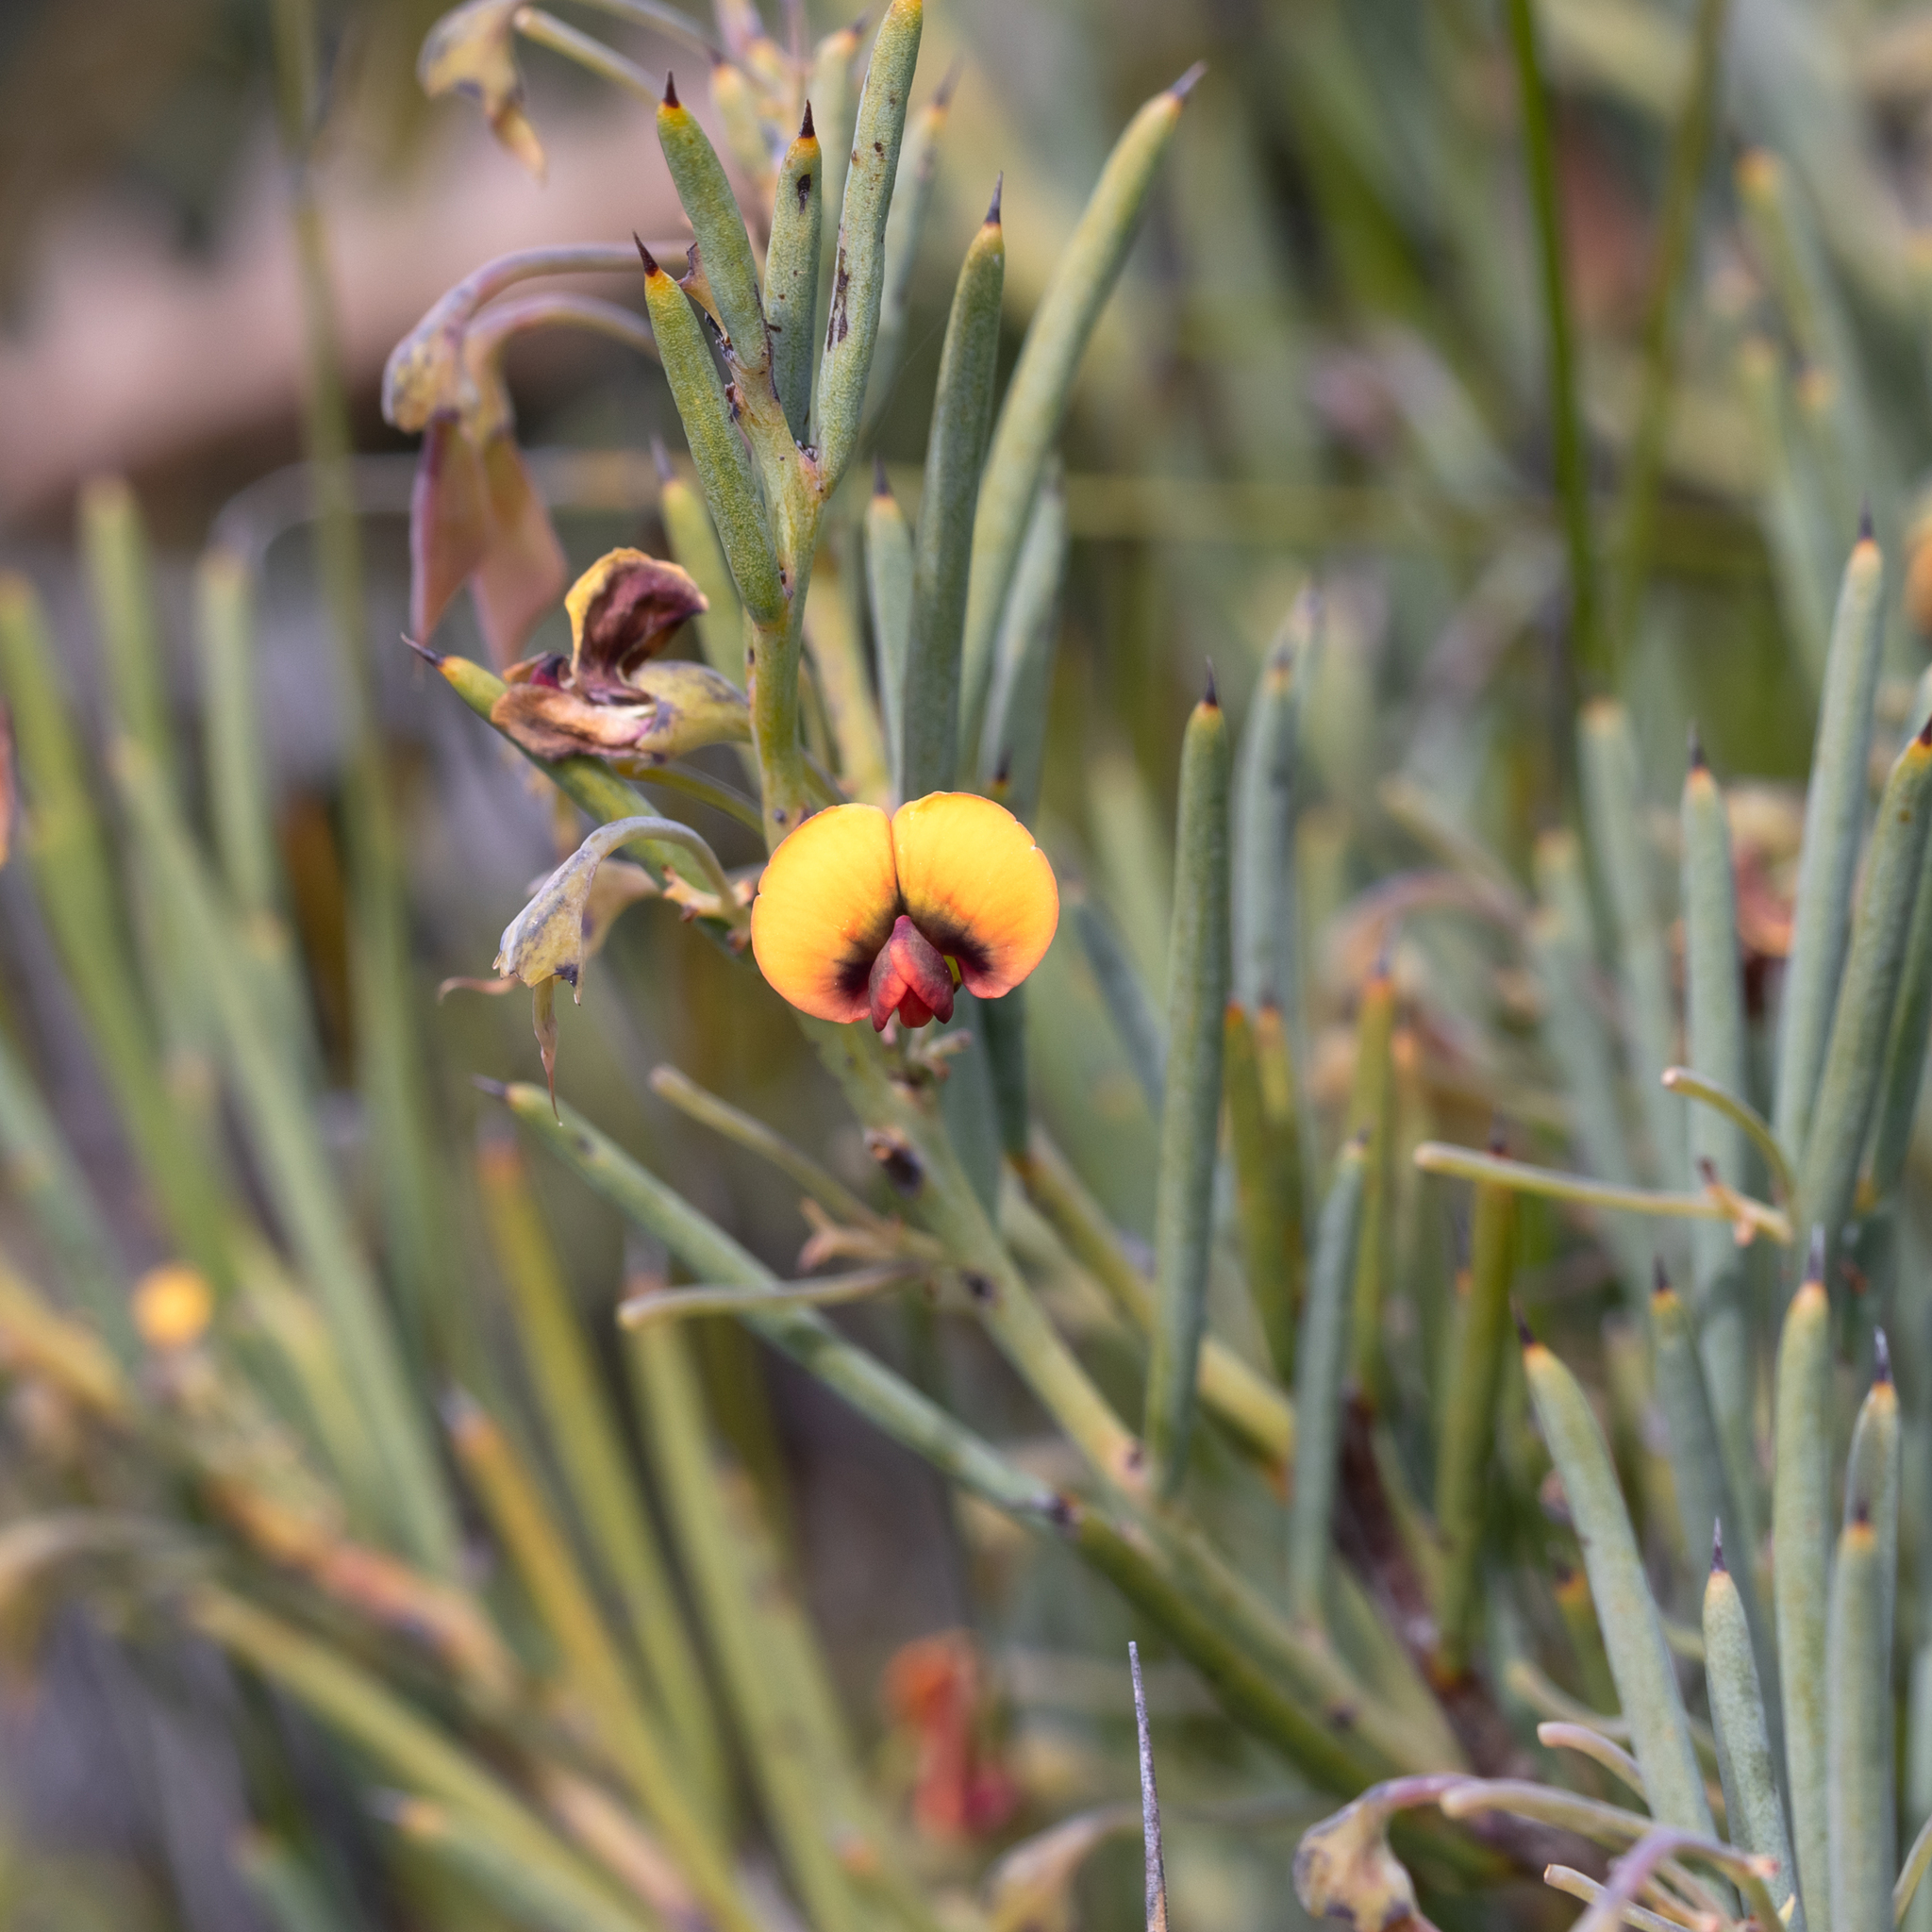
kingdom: Plantae
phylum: Tracheophyta
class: Magnoliopsida
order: Fabales
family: Fabaceae
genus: Daviesia
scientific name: Daviesia teretifolia
